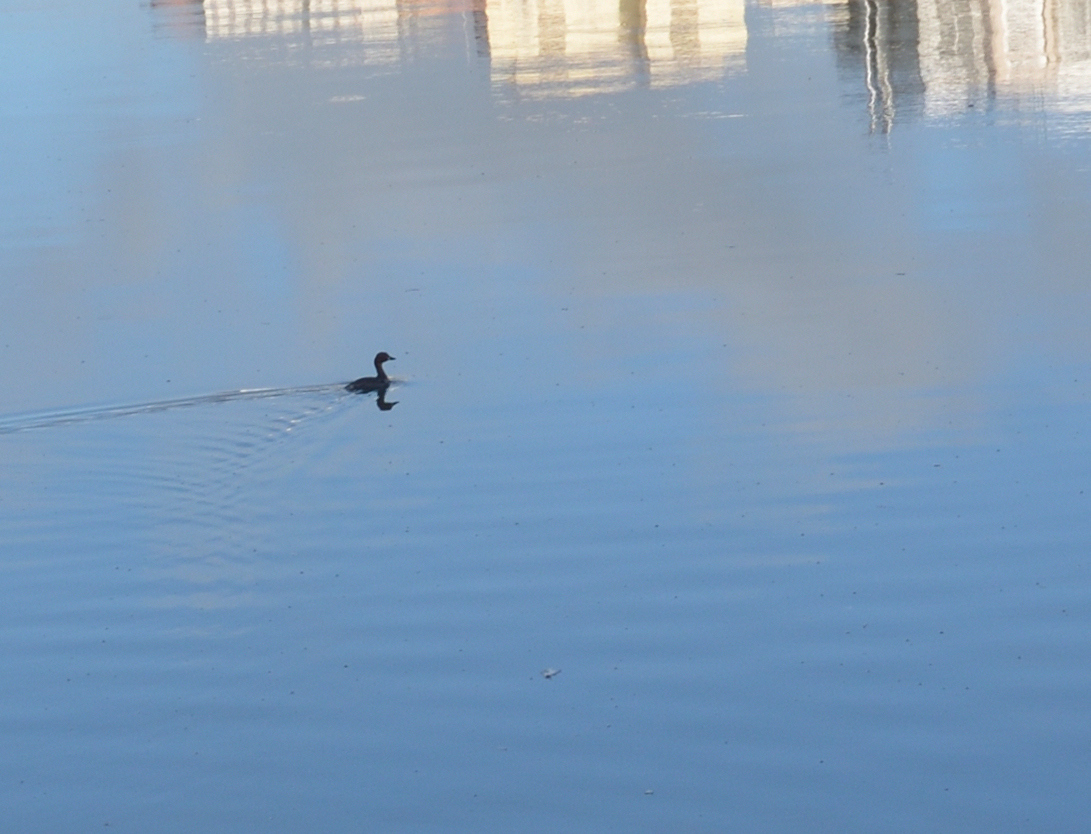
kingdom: Animalia
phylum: Chordata
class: Aves
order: Podicipediformes
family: Podicipedidae
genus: Tachybaptus
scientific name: Tachybaptus ruficollis
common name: Little grebe
